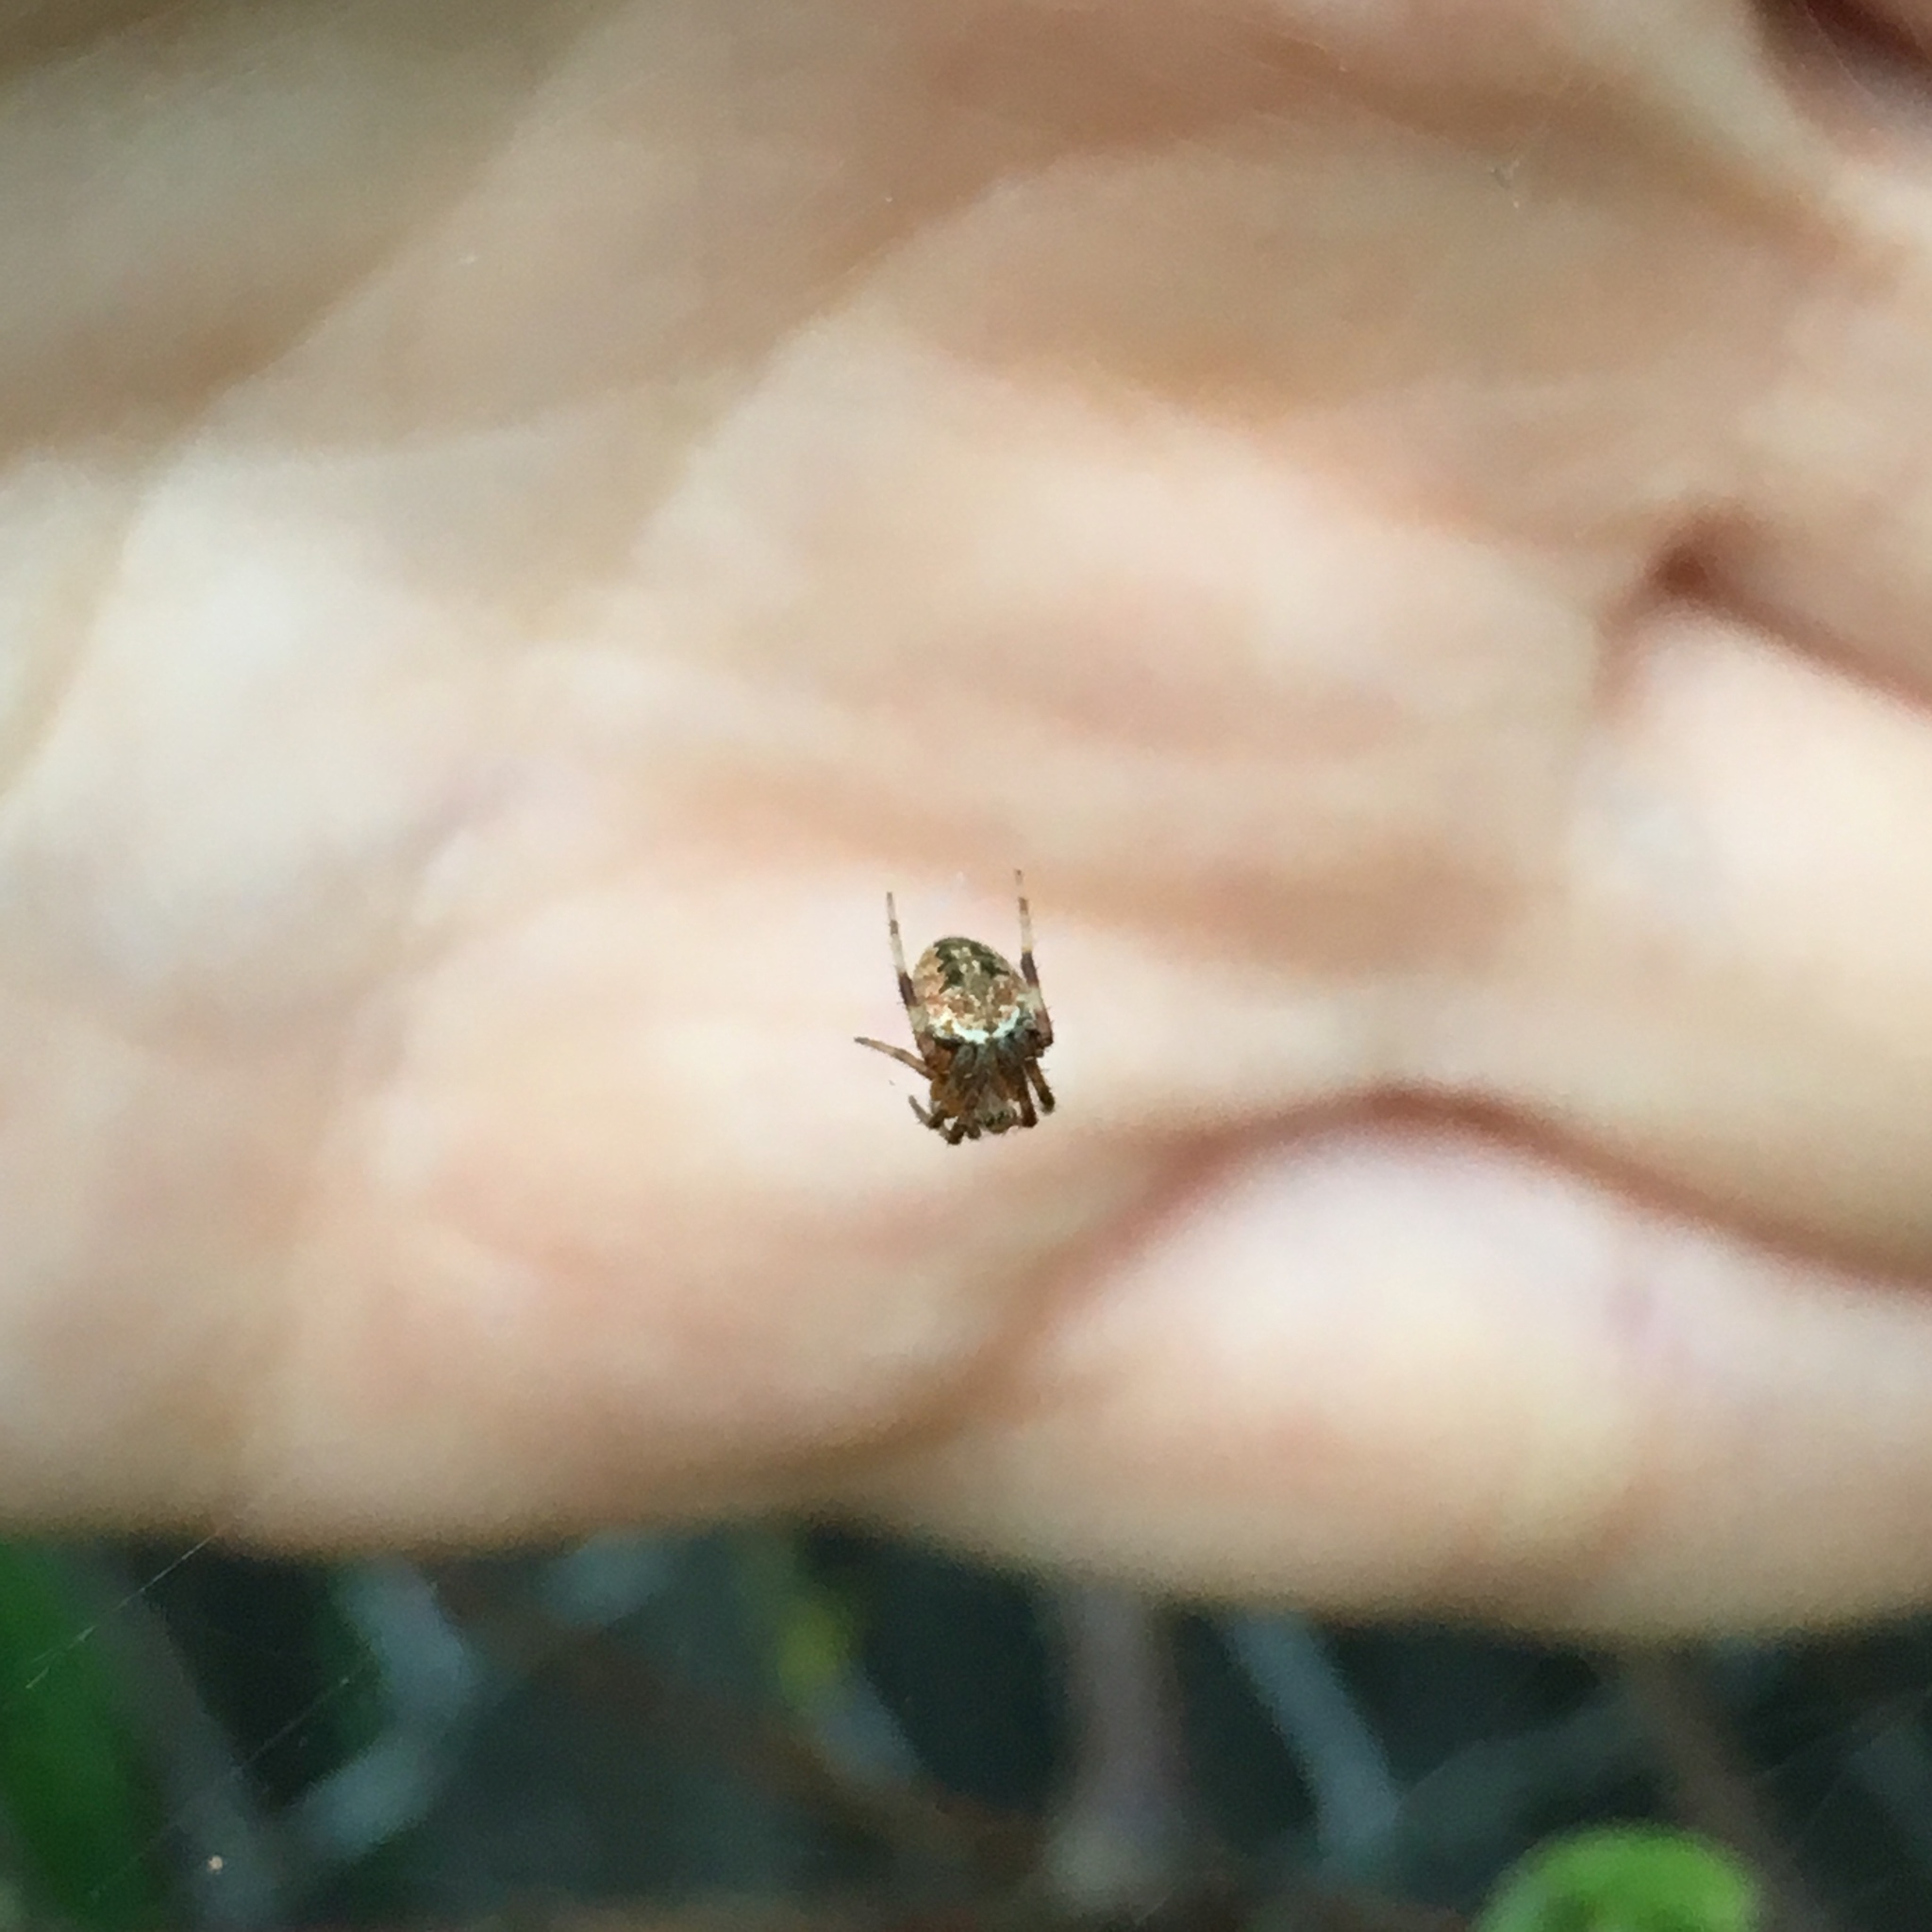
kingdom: Animalia
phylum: Arthropoda
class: Arachnida
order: Araneae
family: Araneidae
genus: Neoscona
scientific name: Neoscona arabesca
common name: Orb weavers
